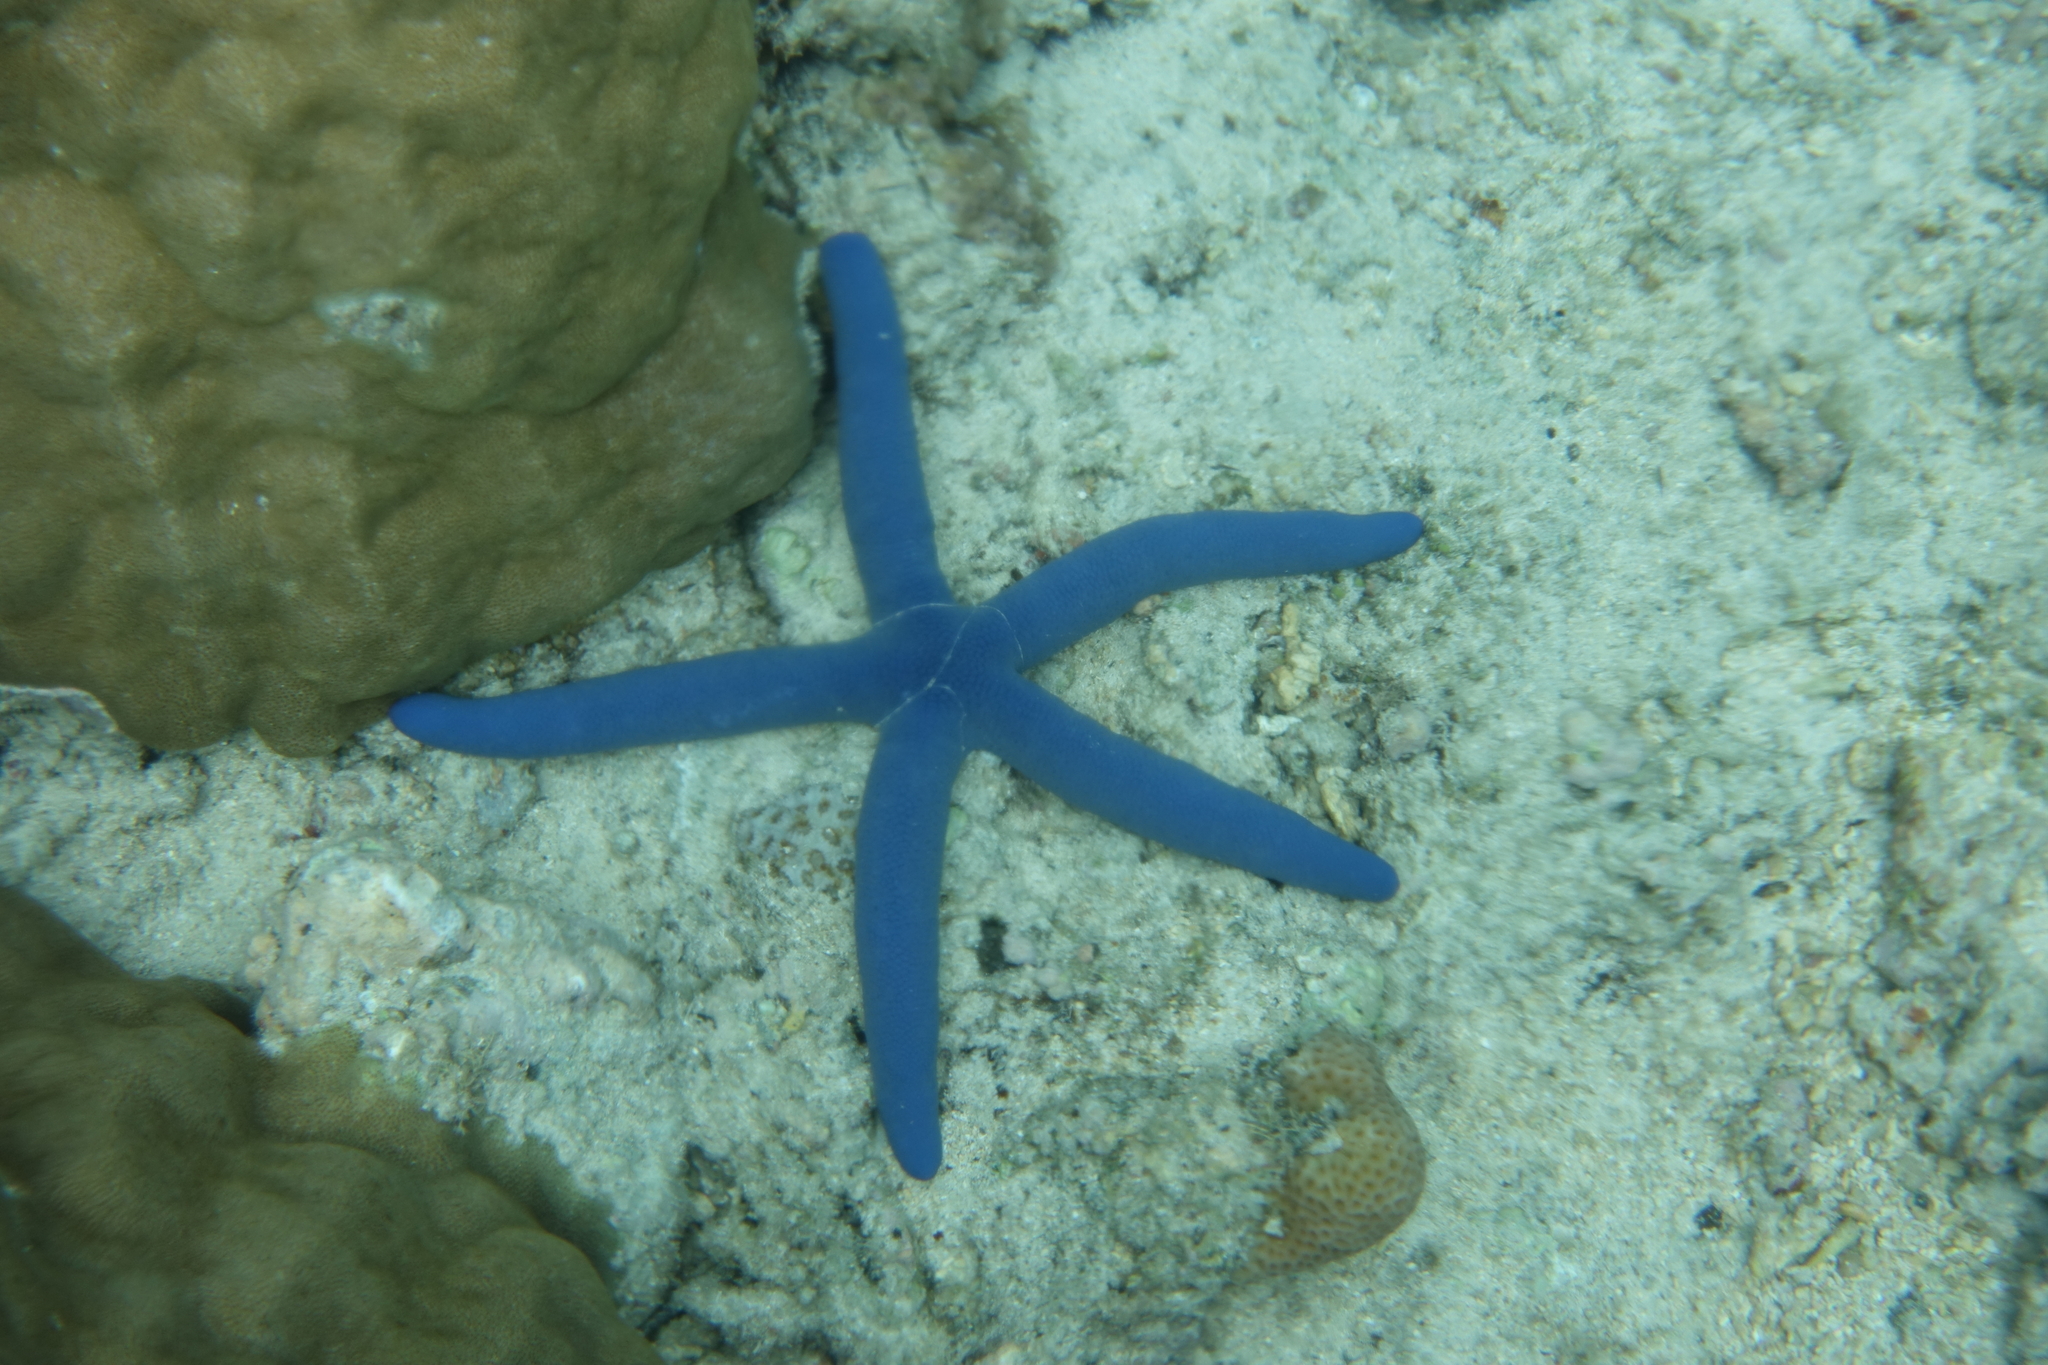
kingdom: Animalia
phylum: Echinodermata
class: Asteroidea
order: Valvatida
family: Ophidiasteridae
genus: Linckia
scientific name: Linckia laevigata
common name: Azure sea star
